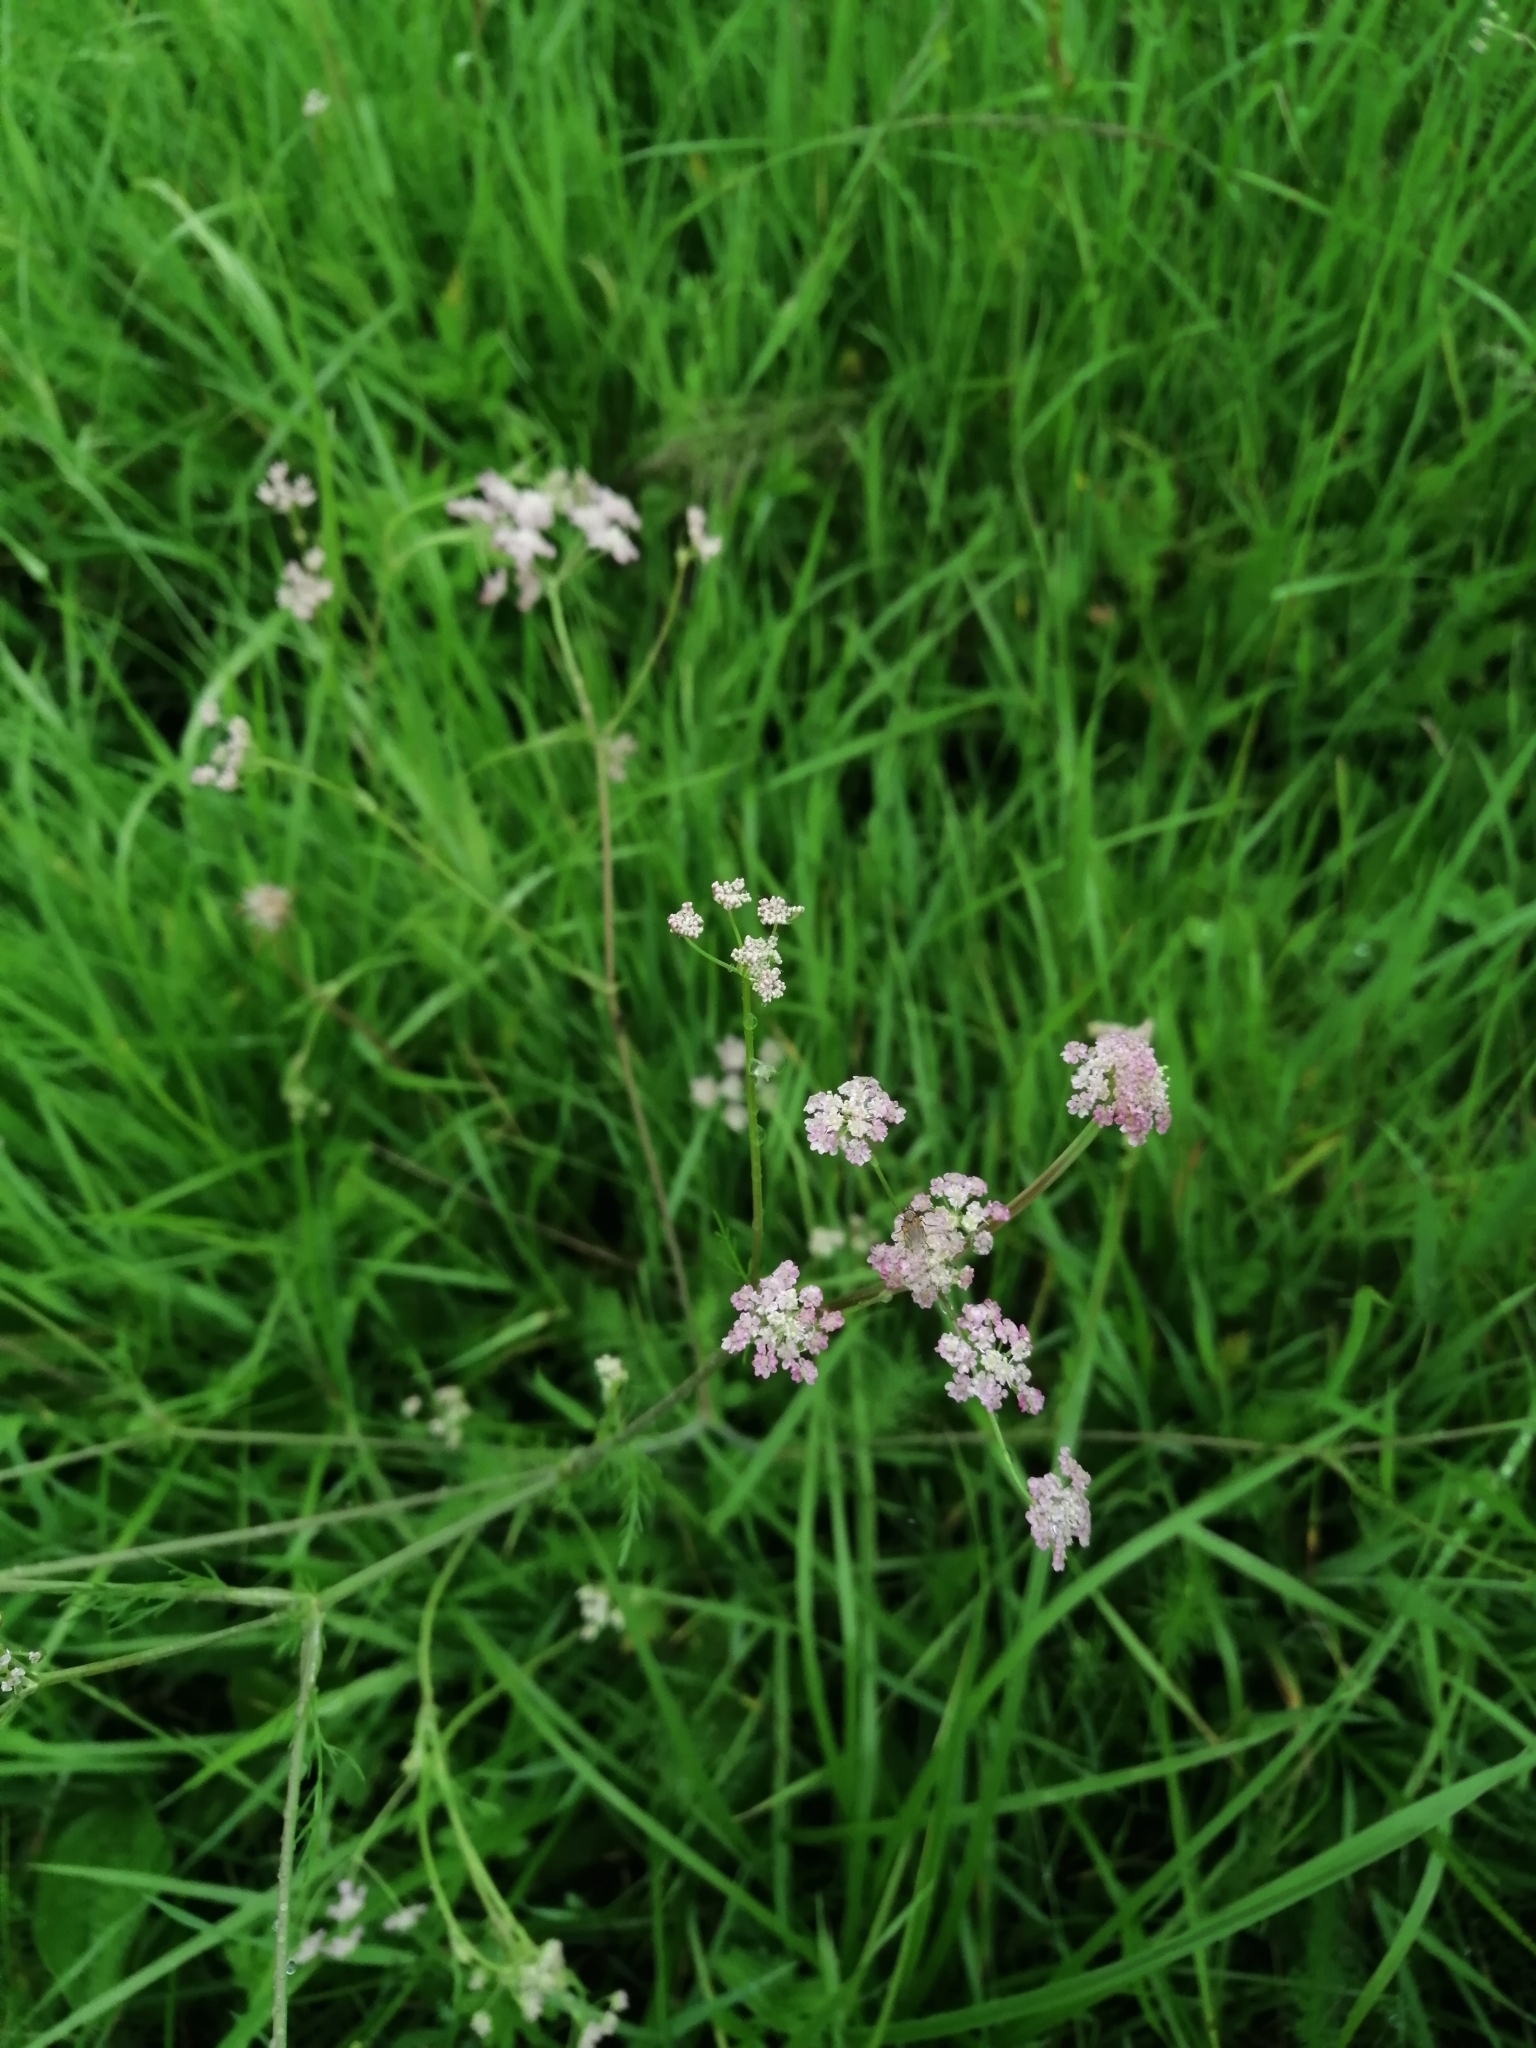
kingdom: Plantae
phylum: Tracheophyta
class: Magnoliopsida
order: Apiales
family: Apiaceae
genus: Carum
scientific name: Carum carvi
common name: Caraway
